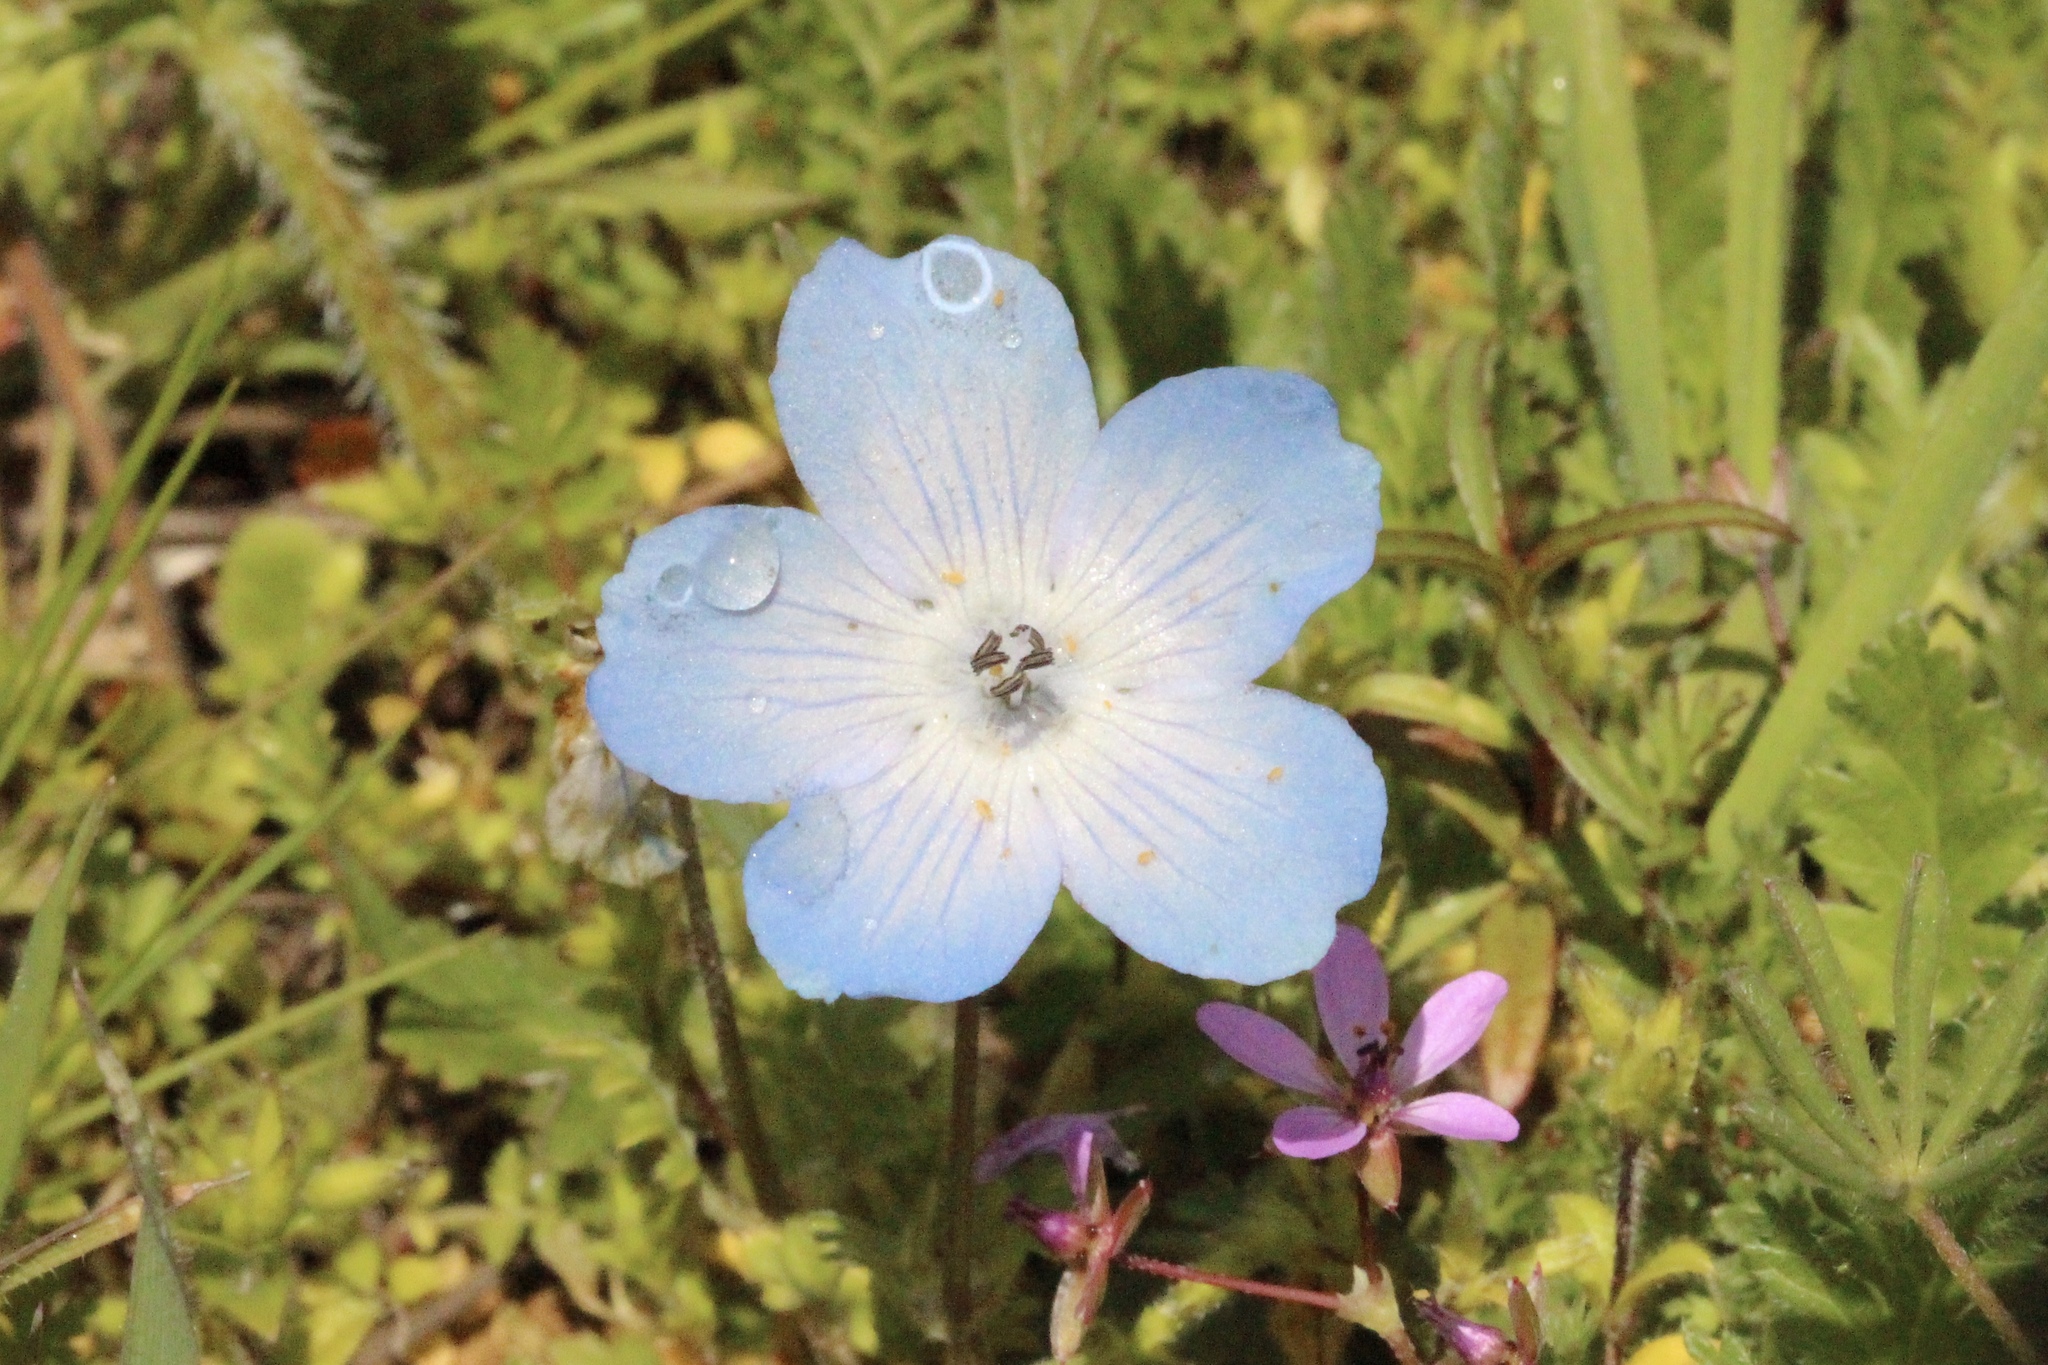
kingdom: Plantae
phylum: Tracheophyta
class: Magnoliopsida
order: Boraginales
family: Hydrophyllaceae
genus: Nemophila
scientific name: Nemophila menziesii
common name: Baby's-blue-eyes
